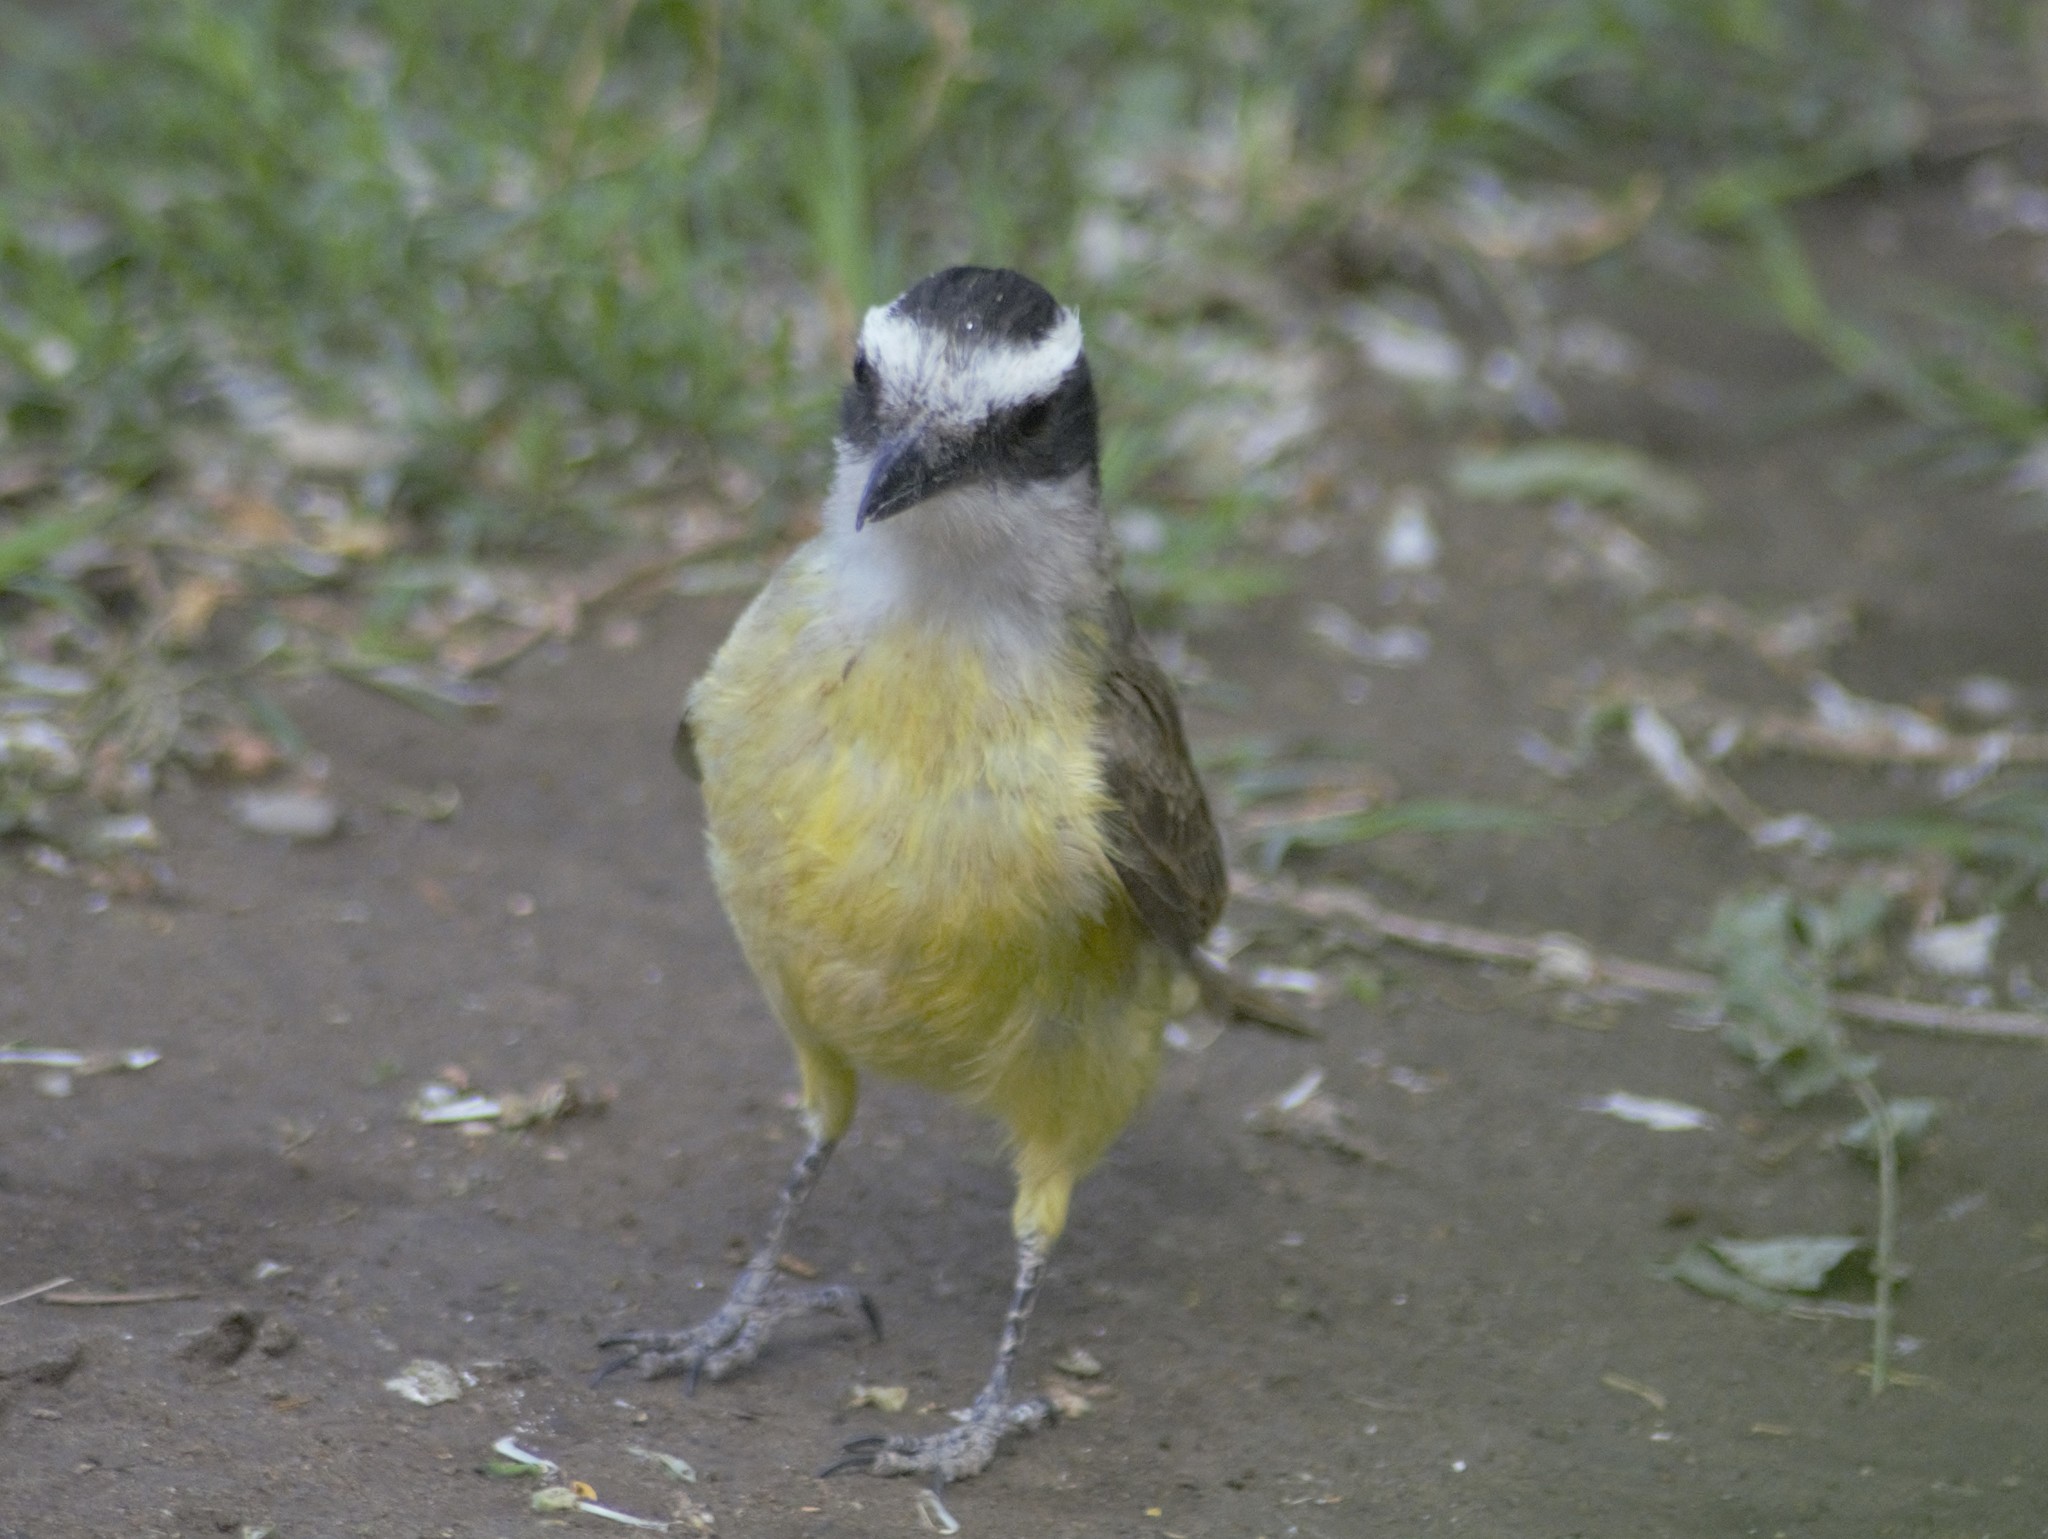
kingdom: Animalia
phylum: Chordata
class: Aves
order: Passeriformes
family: Tyrannidae
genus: Pitangus
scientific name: Pitangus sulphuratus
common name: Great kiskadee
